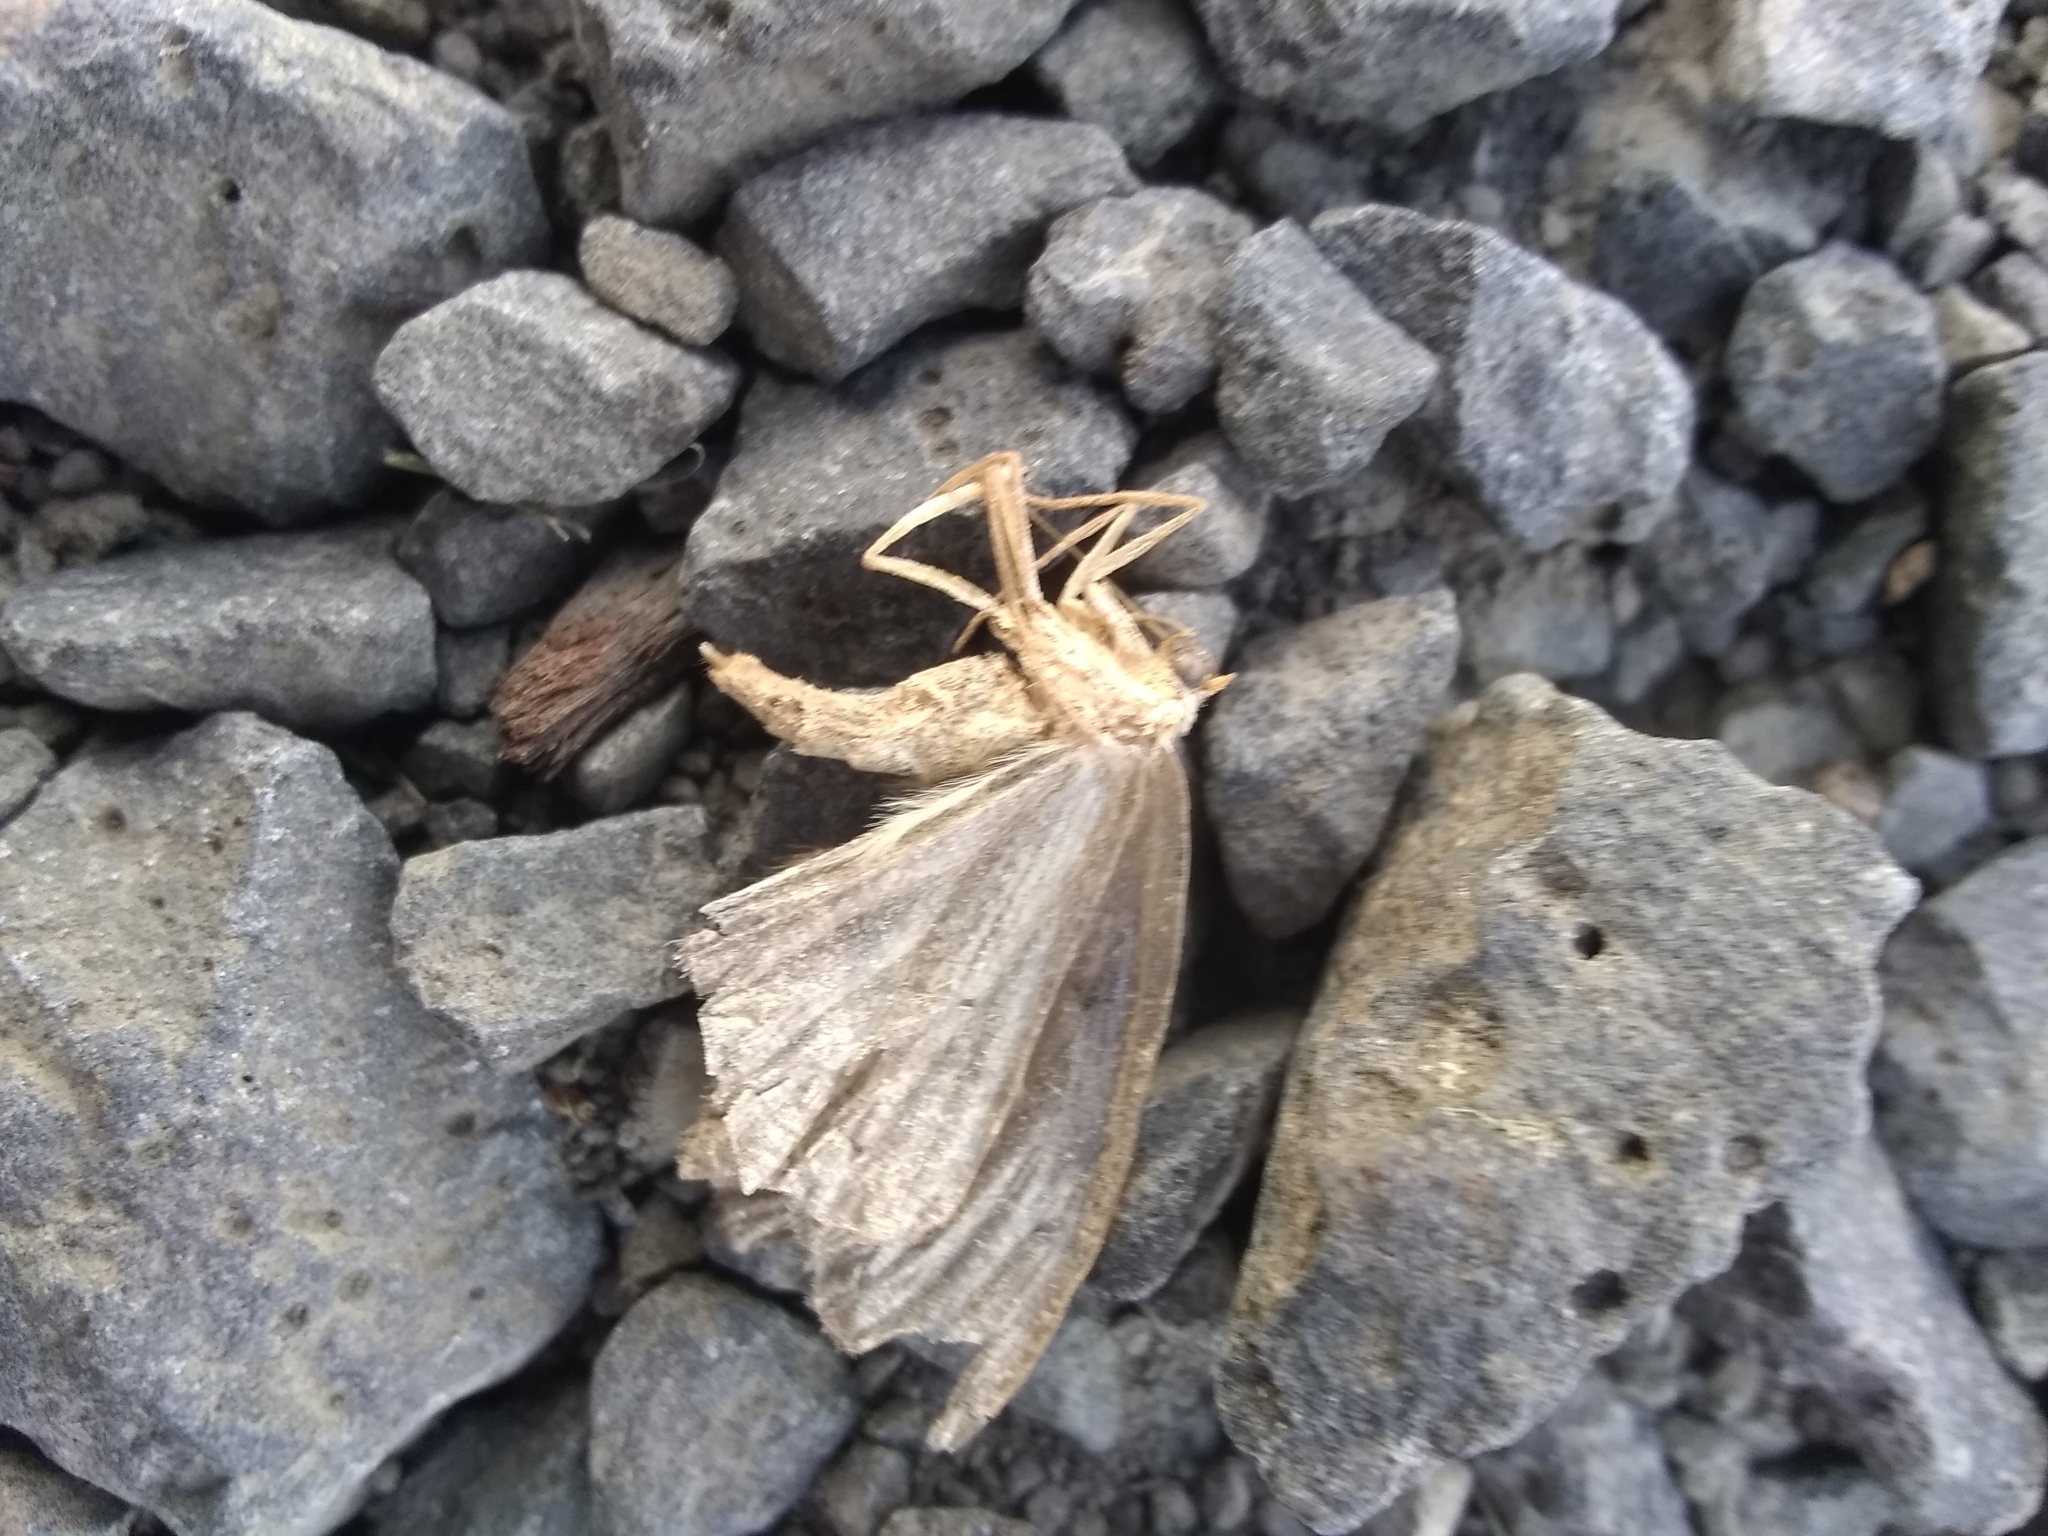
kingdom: Animalia
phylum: Arthropoda
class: Insecta
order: Lepidoptera
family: Geometridae
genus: Lambdina
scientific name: Lambdina fiscellaria
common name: Hemlock looper
